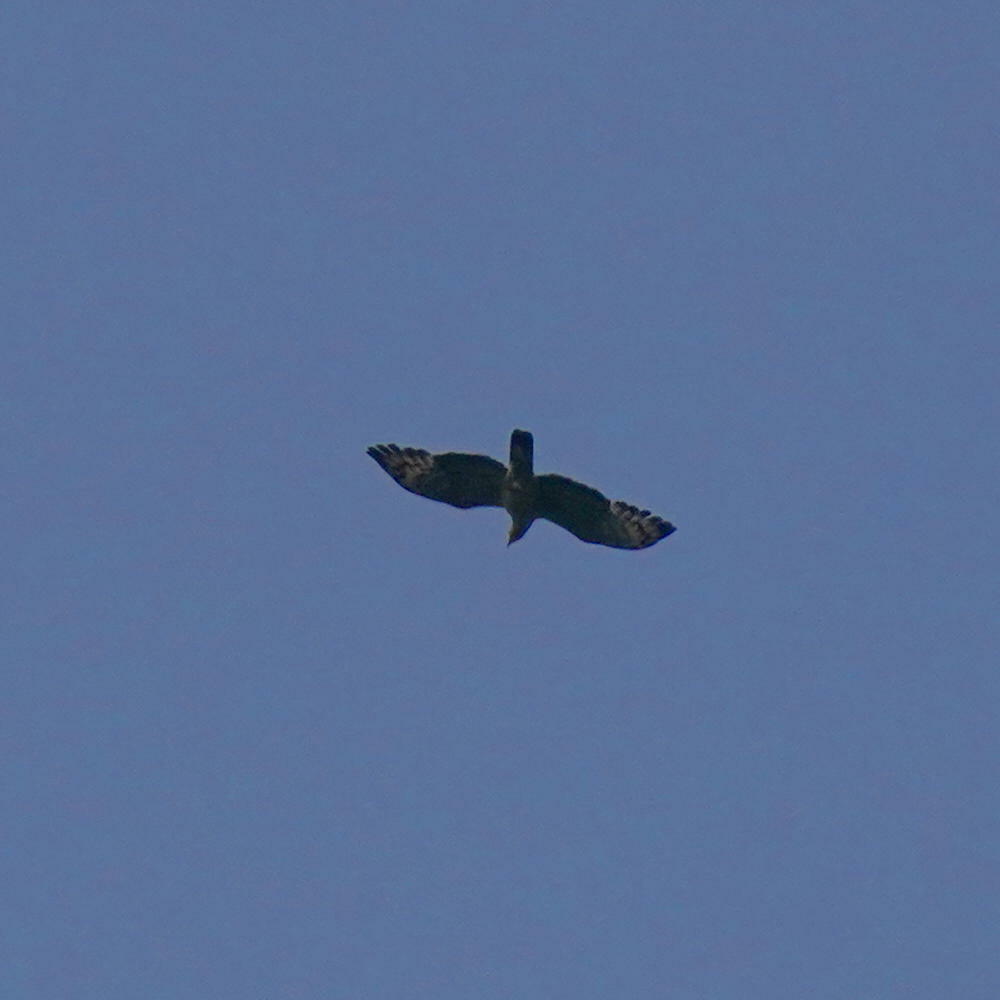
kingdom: Animalia
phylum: Chordata
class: Aves
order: Accipitriformes
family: Accipitridae
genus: Pernis
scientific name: Pernis ptilorhynchus
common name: Crested honey buzzard
